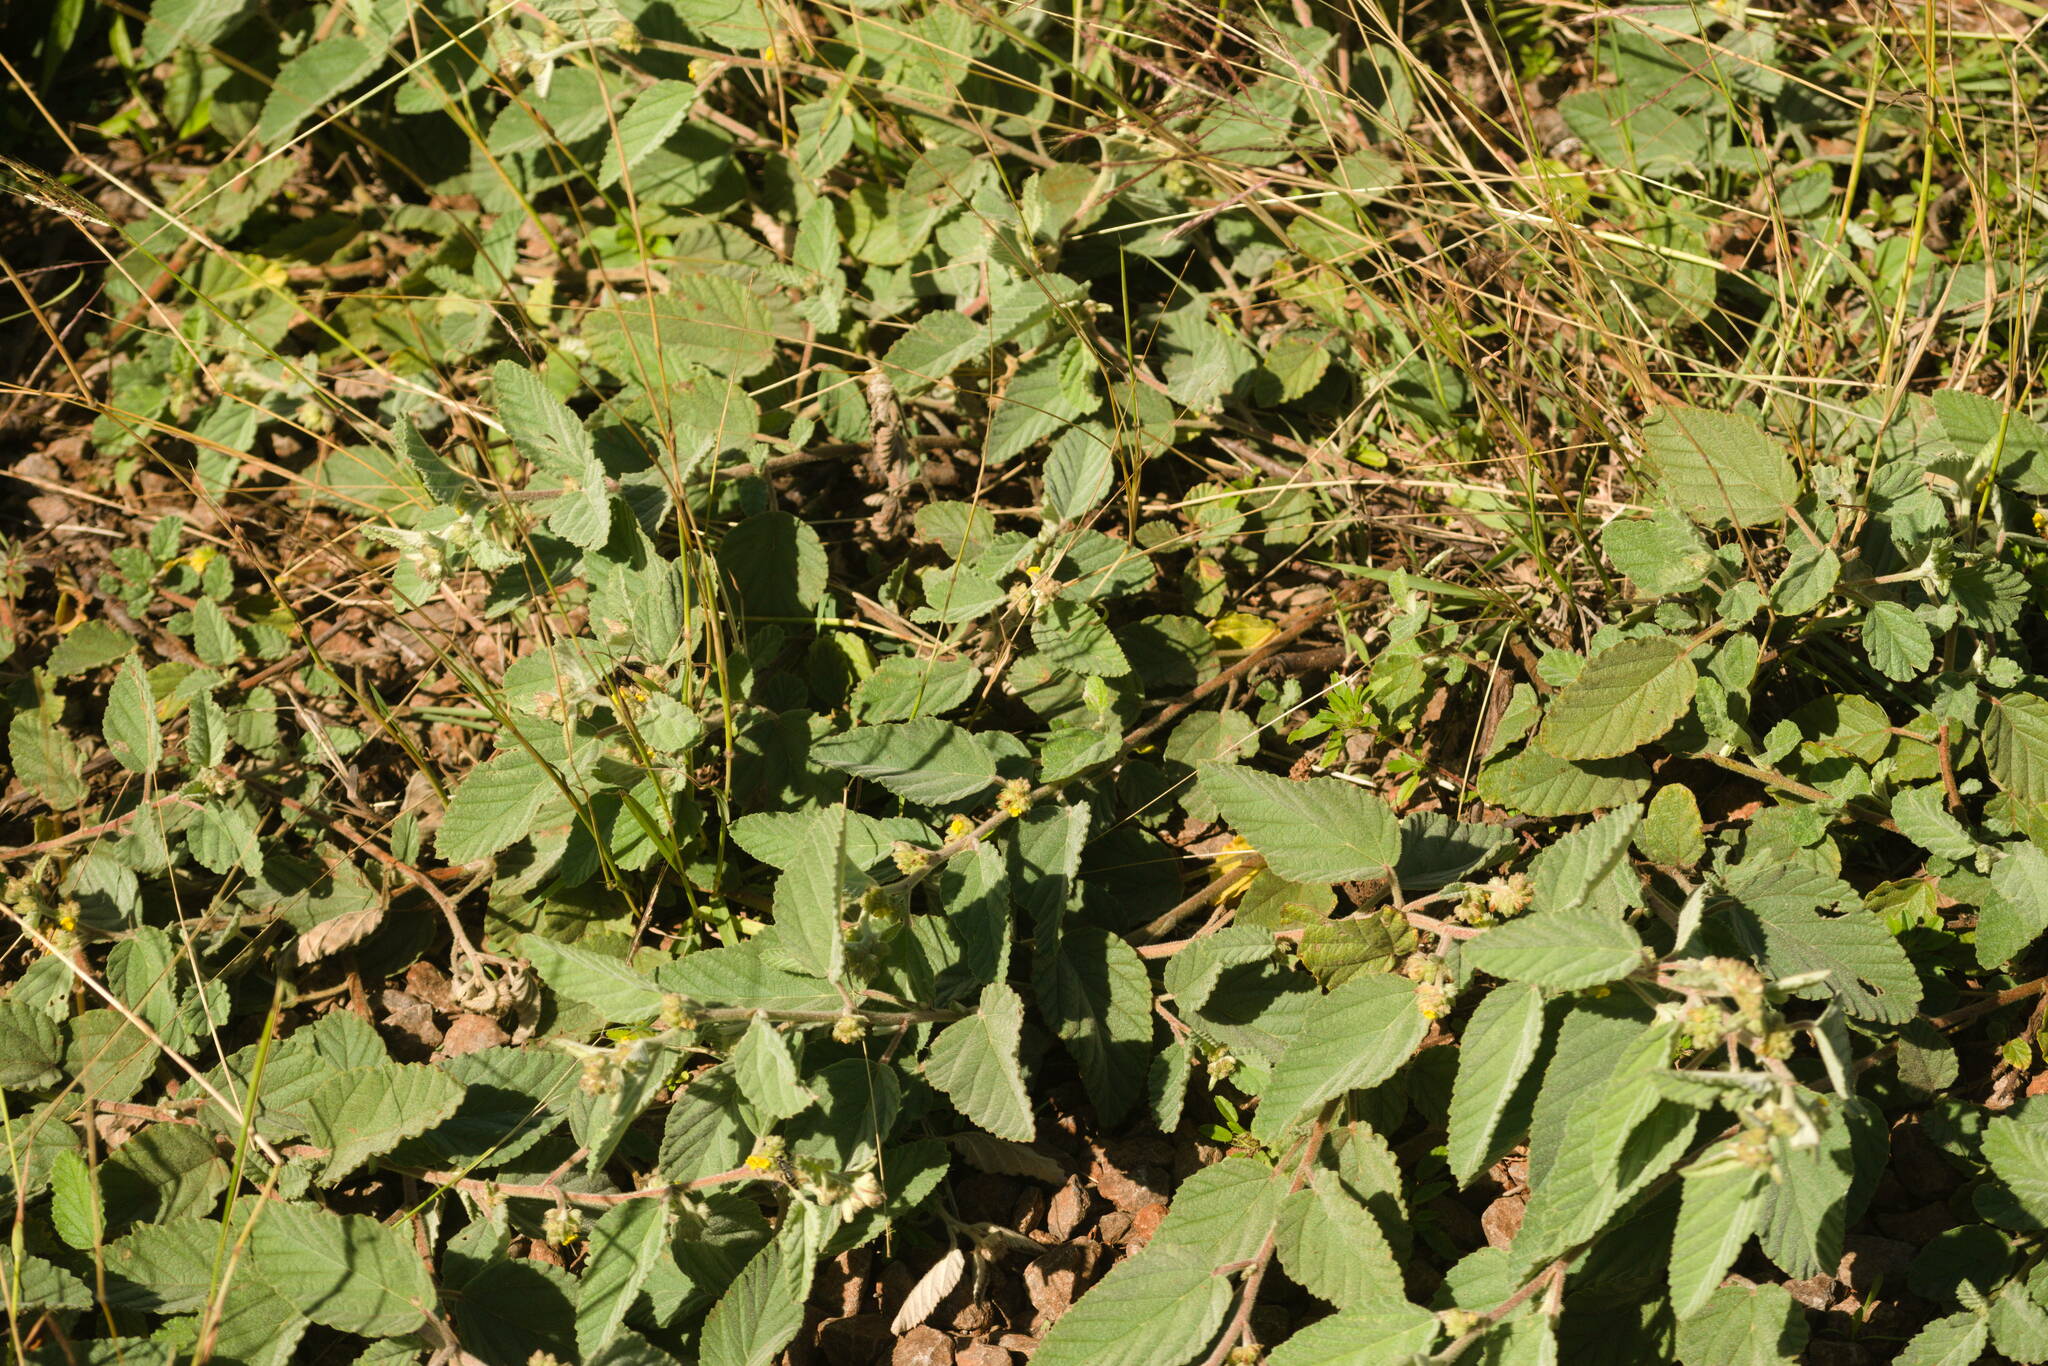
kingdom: Plantae
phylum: Tracheophyta
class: Magnoliopsida
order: Malvales
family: Malvaceae
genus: Waltheria
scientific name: Waltheria indica
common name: Leather-coat
